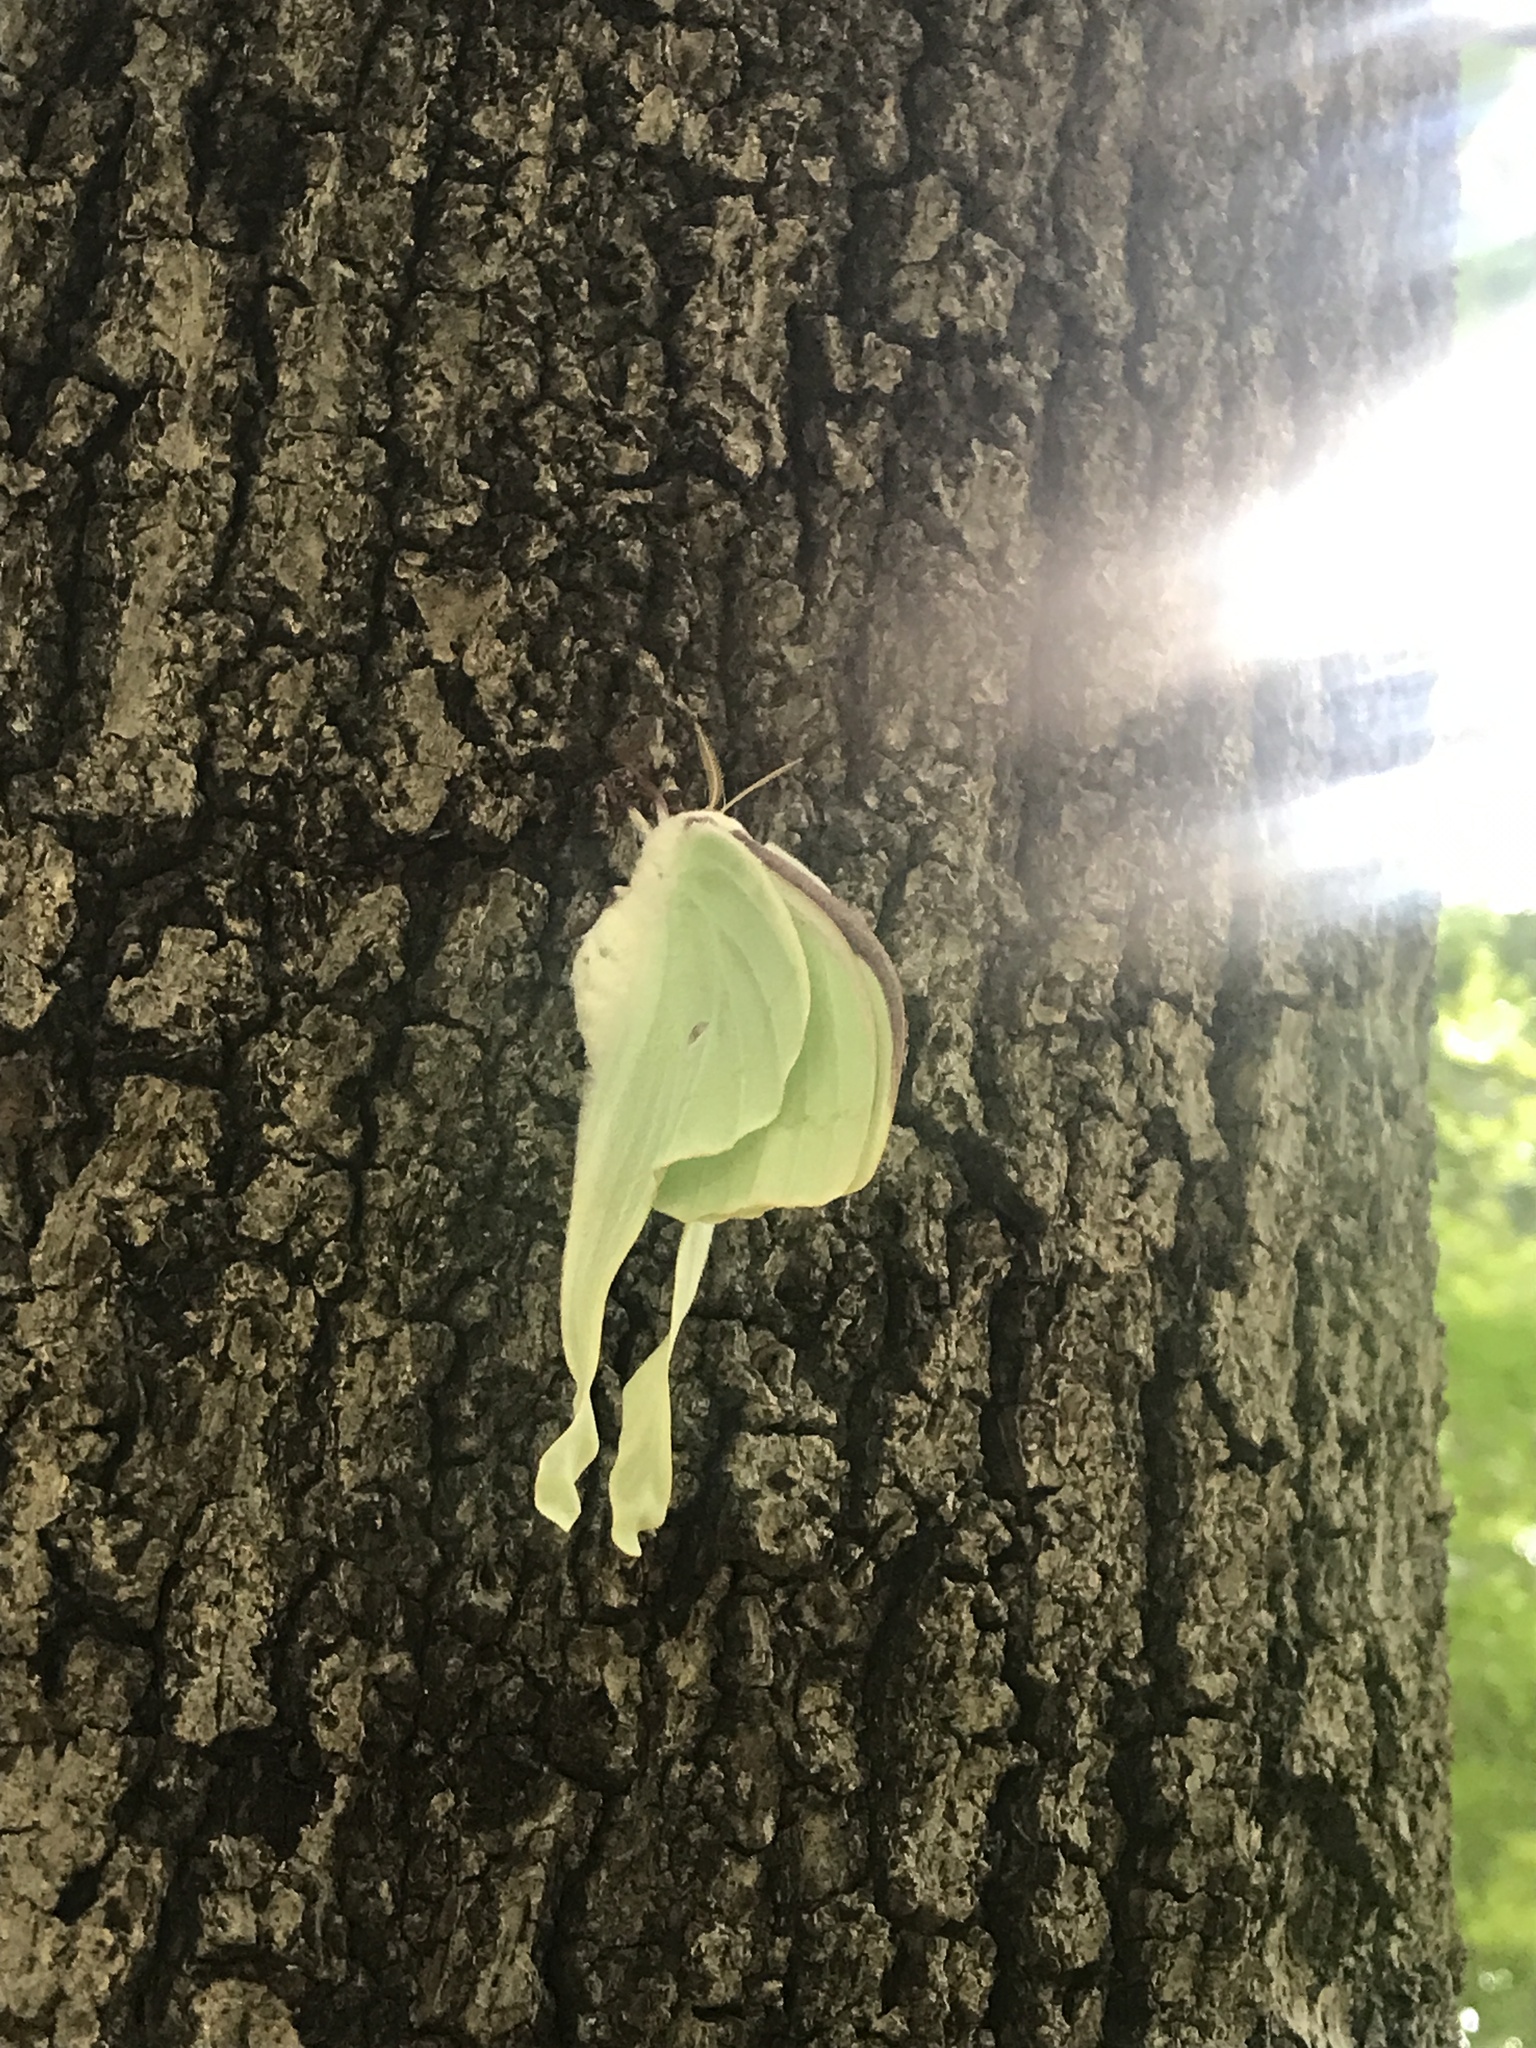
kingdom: Animalia
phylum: Arthropoda
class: Insecta
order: Lepidoptera
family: Saturniidae
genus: Actias
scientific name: Actias luna
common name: Luna moth
